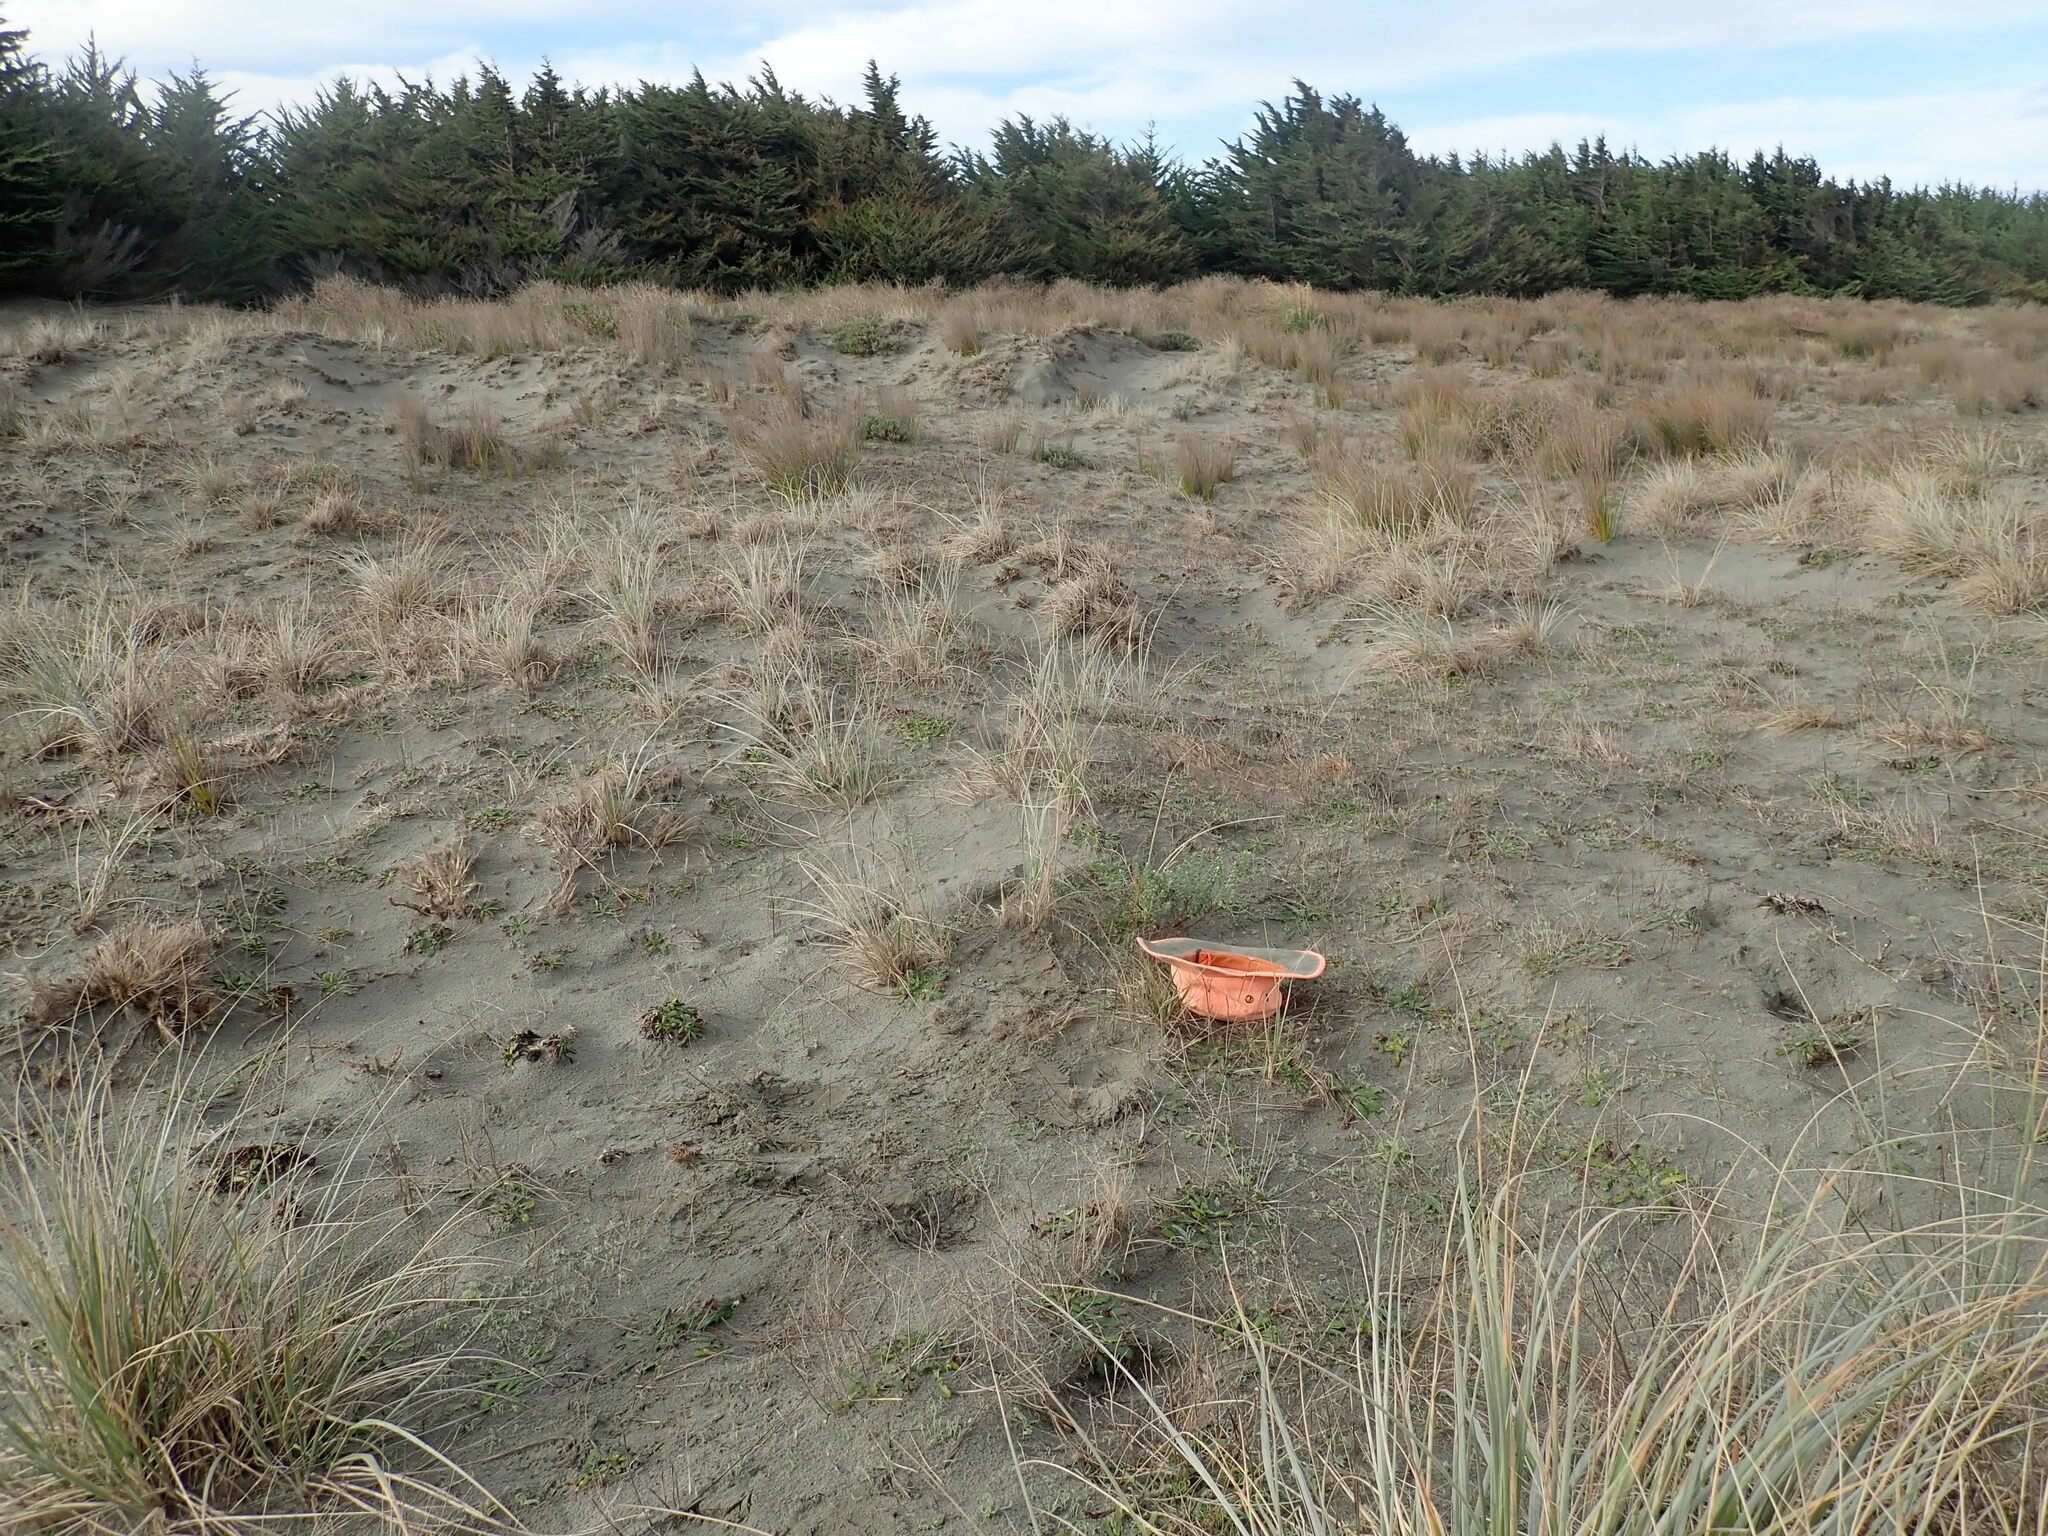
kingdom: Plantae
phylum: Tracheophyta
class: Magnoliopsida
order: Malvales
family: Thymelaeaceae
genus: Pimelea
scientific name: Pimelea villosa
